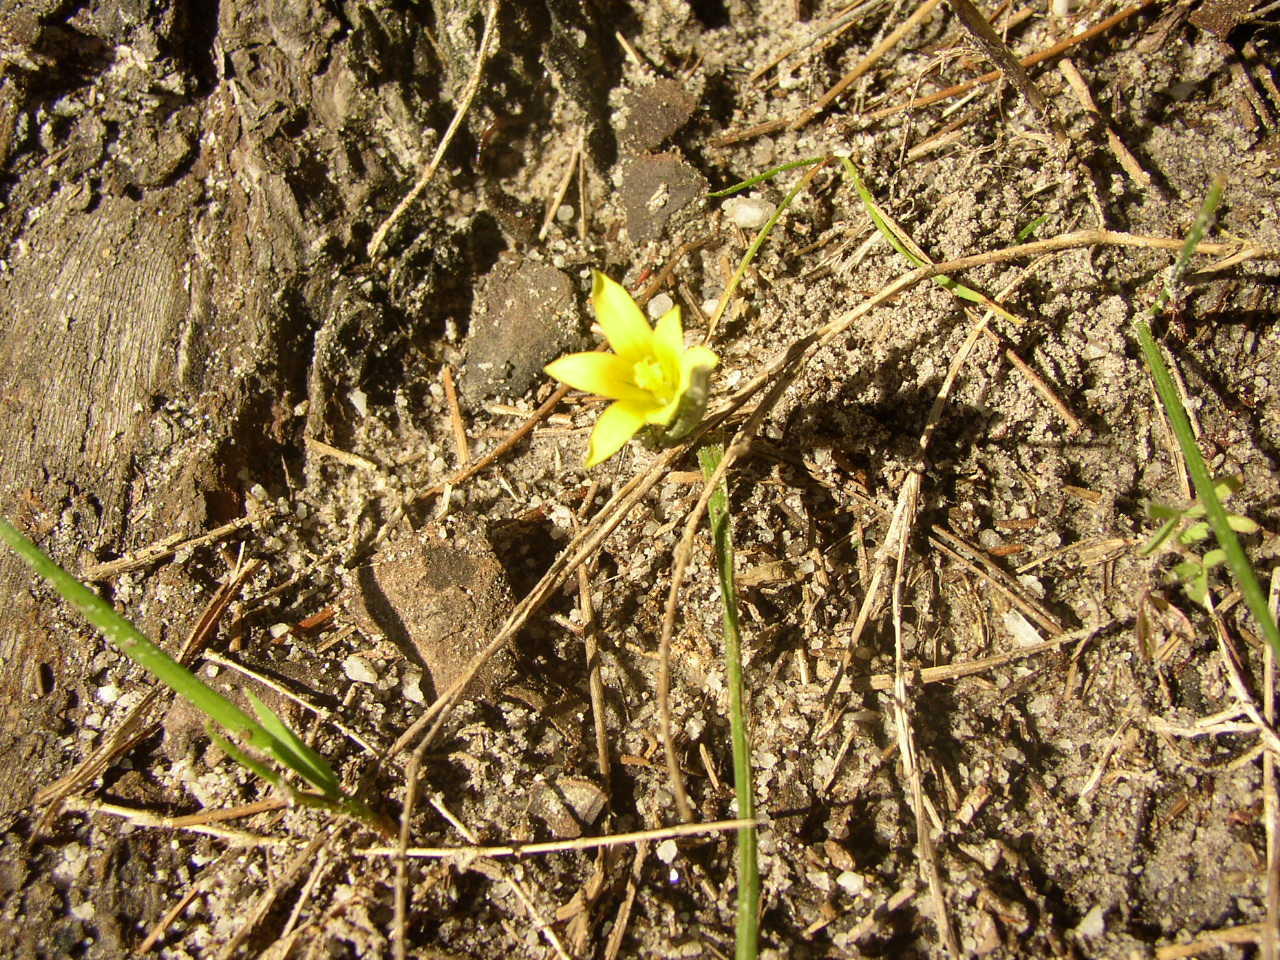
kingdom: Plantae
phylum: Tracheophyta
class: Liliopsida
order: Asparagales
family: Iridaceae
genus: Romulea
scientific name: Romulea flava
